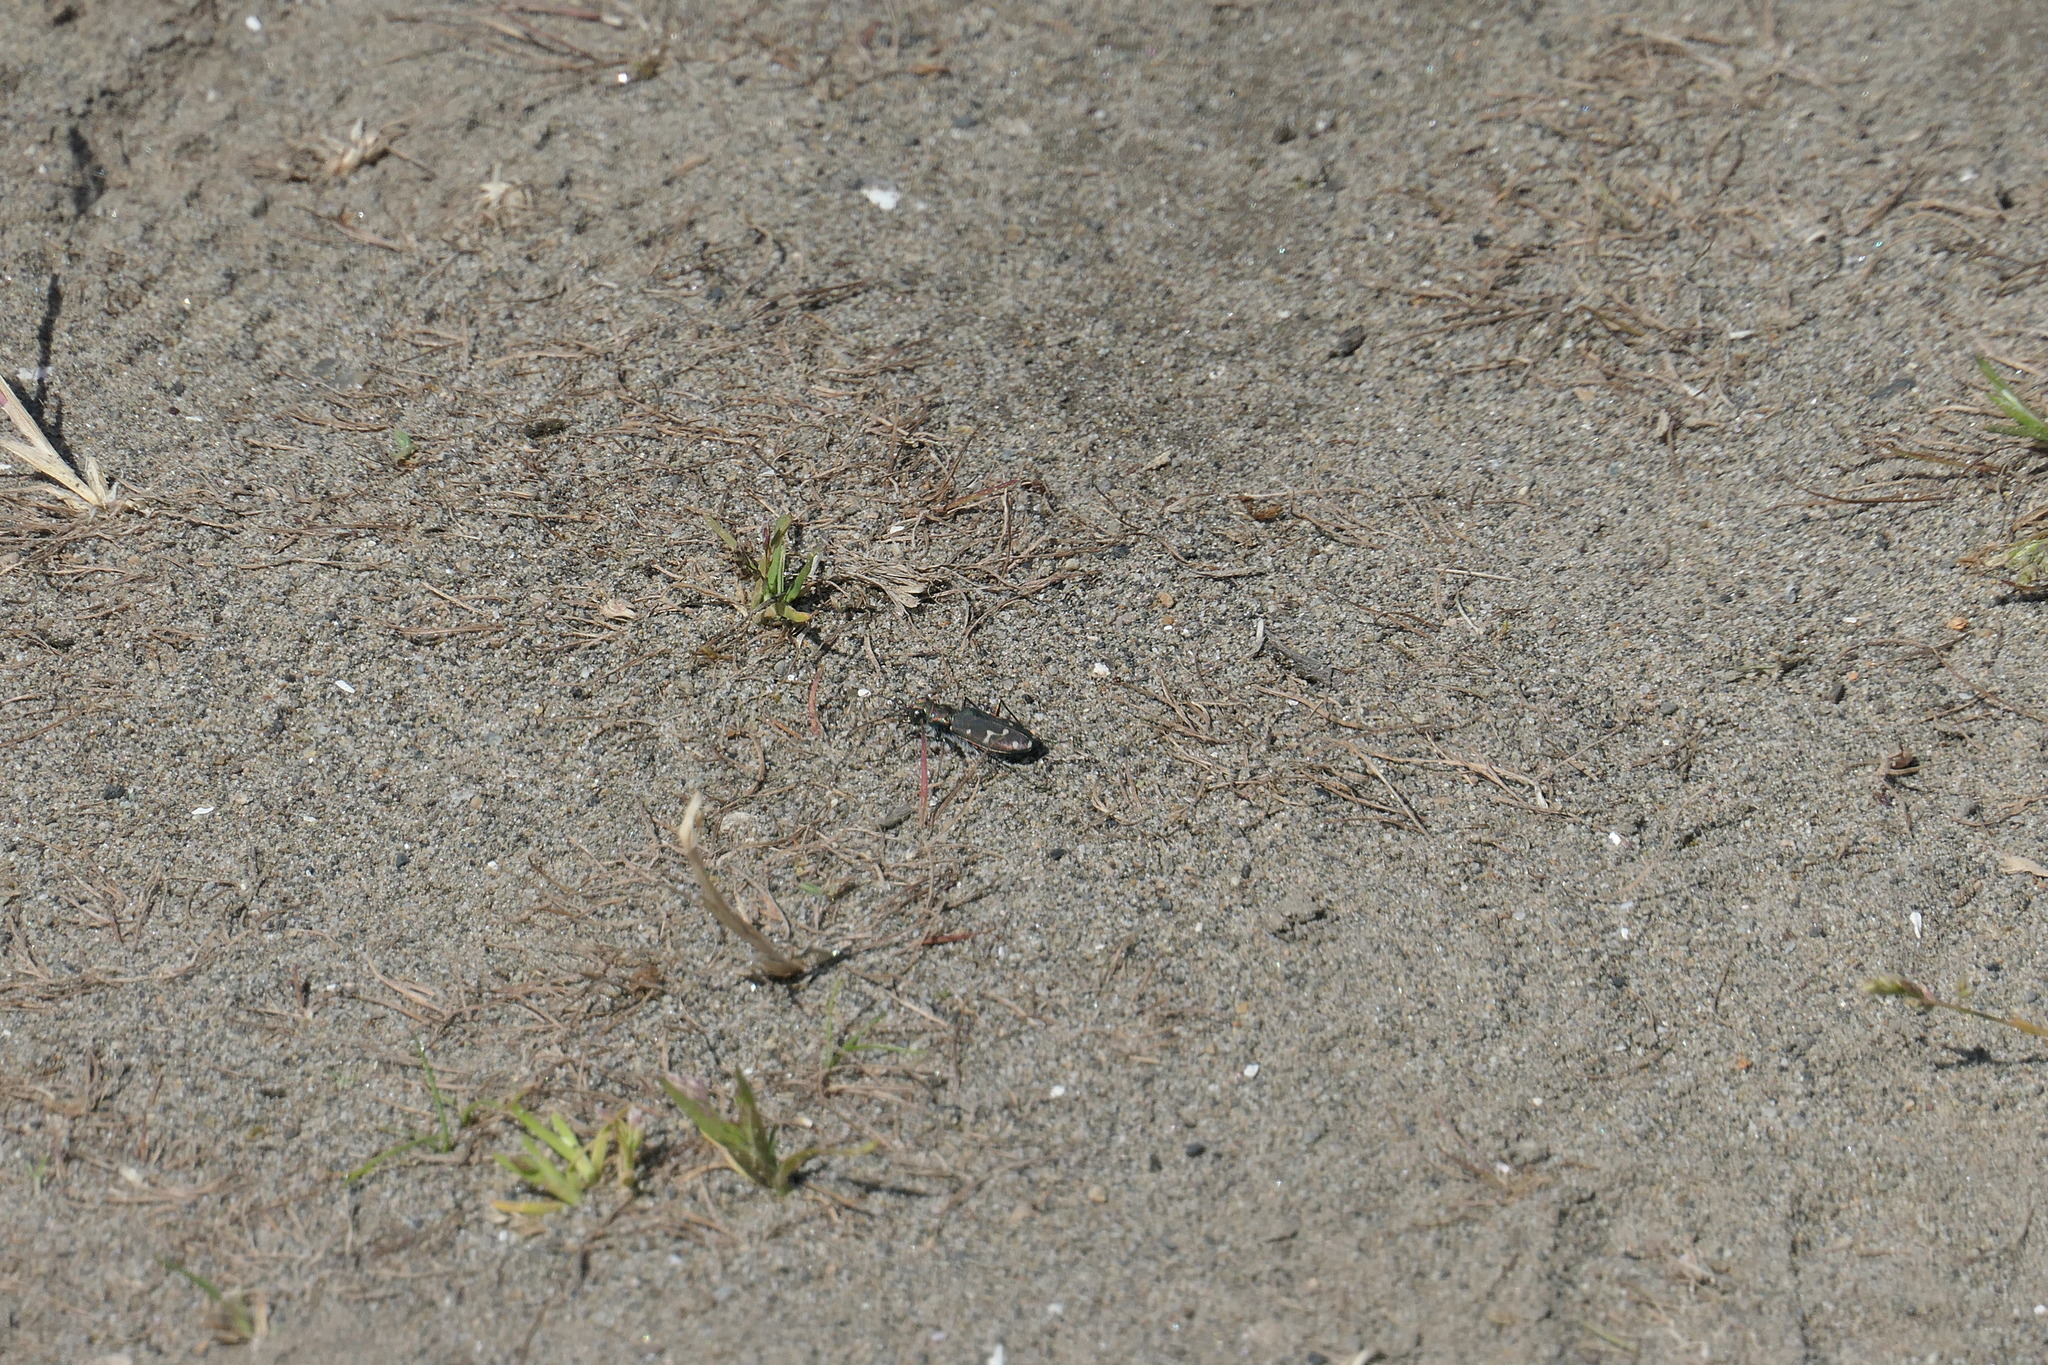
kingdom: Animalia
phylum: Arthropoda
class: Insecta
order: Coleoptera
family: Carabidae
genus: Cicindela
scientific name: Cicindela oregona
